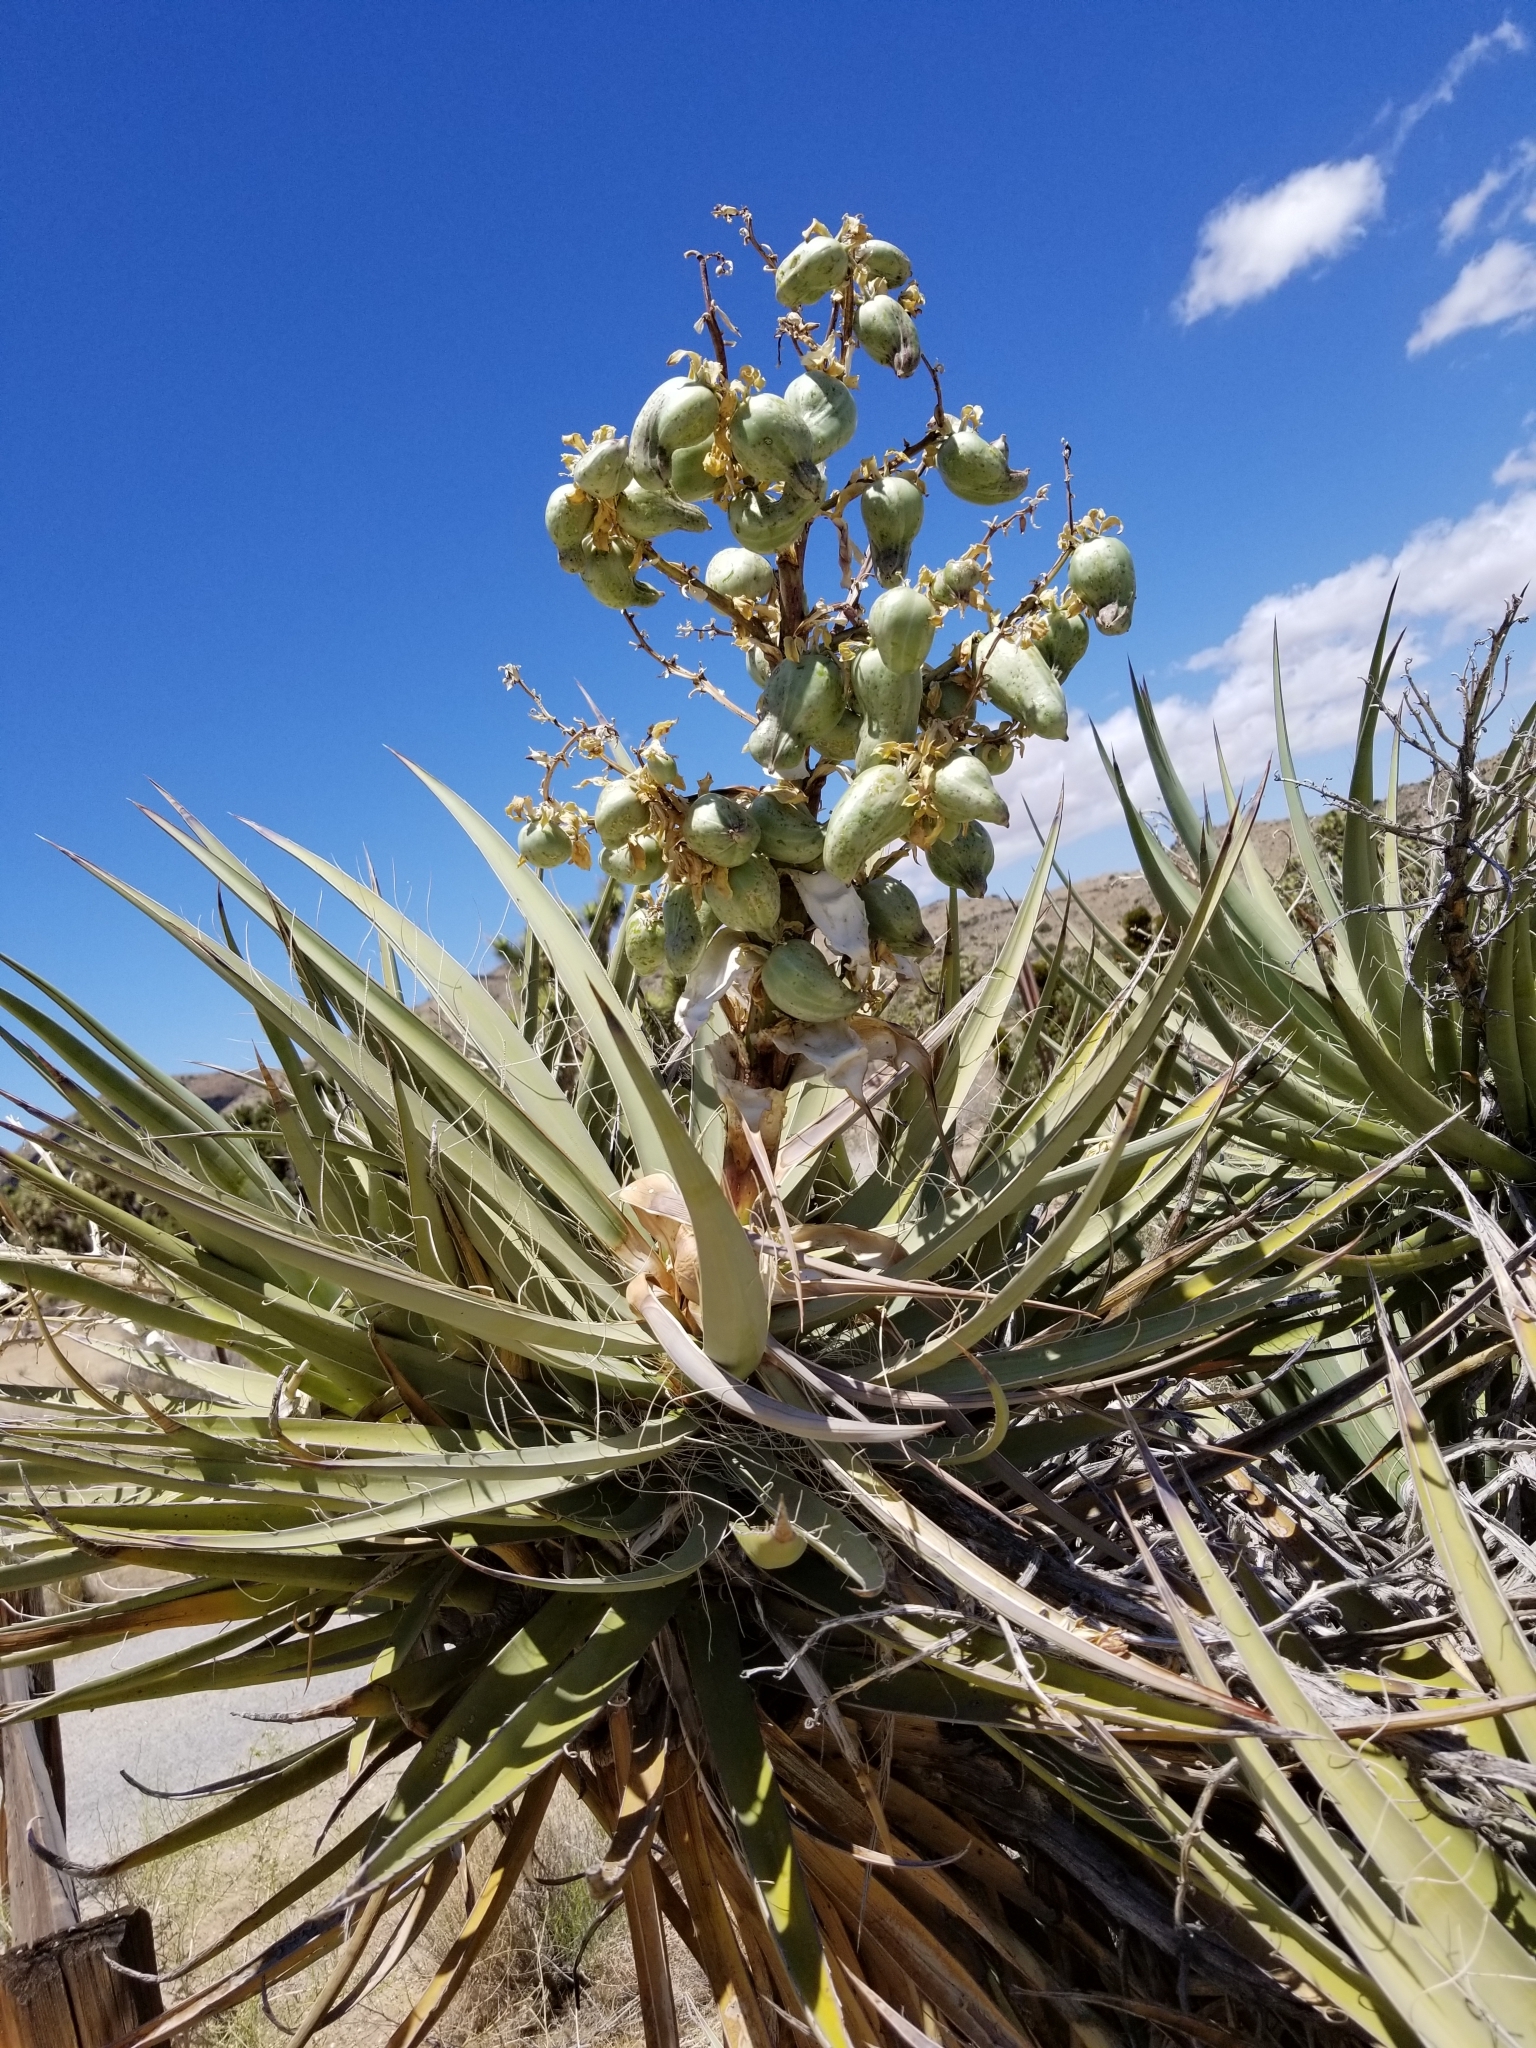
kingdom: Plantae
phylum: Tracheophyta
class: Liliopsida
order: Asparagales
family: Asparagaceae
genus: Yucca
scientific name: Yucca schidigera
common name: Mojave yucca
